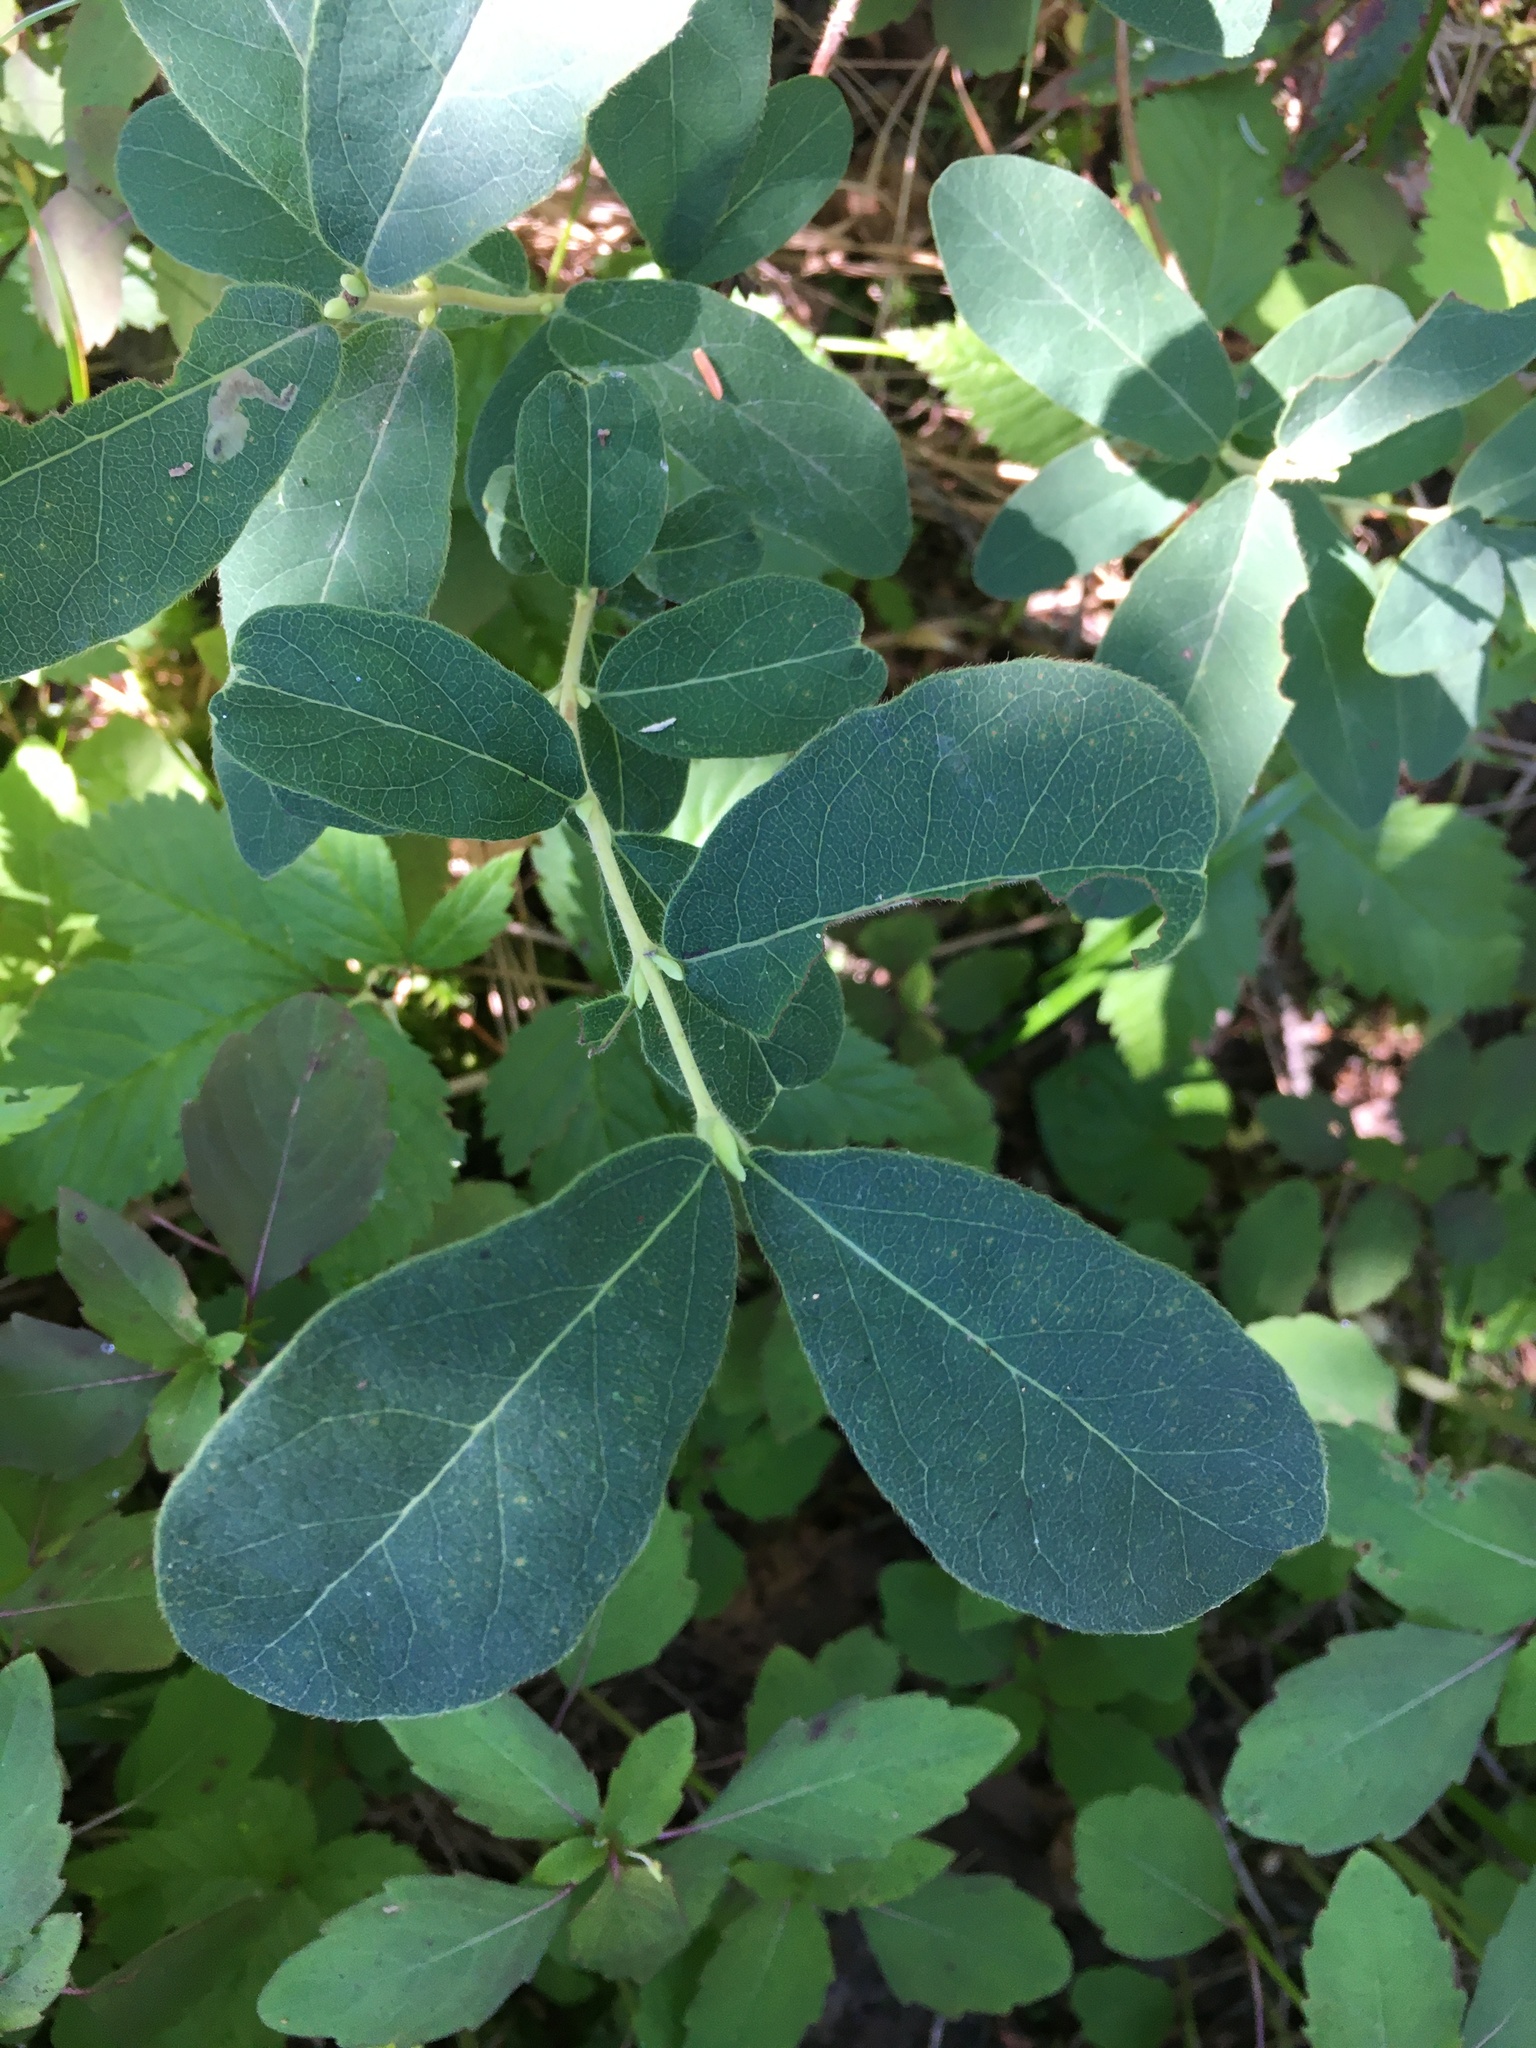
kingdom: Plantae
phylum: Tracheophyta
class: Magnoliopsida
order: Dipsacales
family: Caprifoliaceae
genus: Lonicera
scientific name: Lonicera villosa
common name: Mountain fly-honeysuckle
